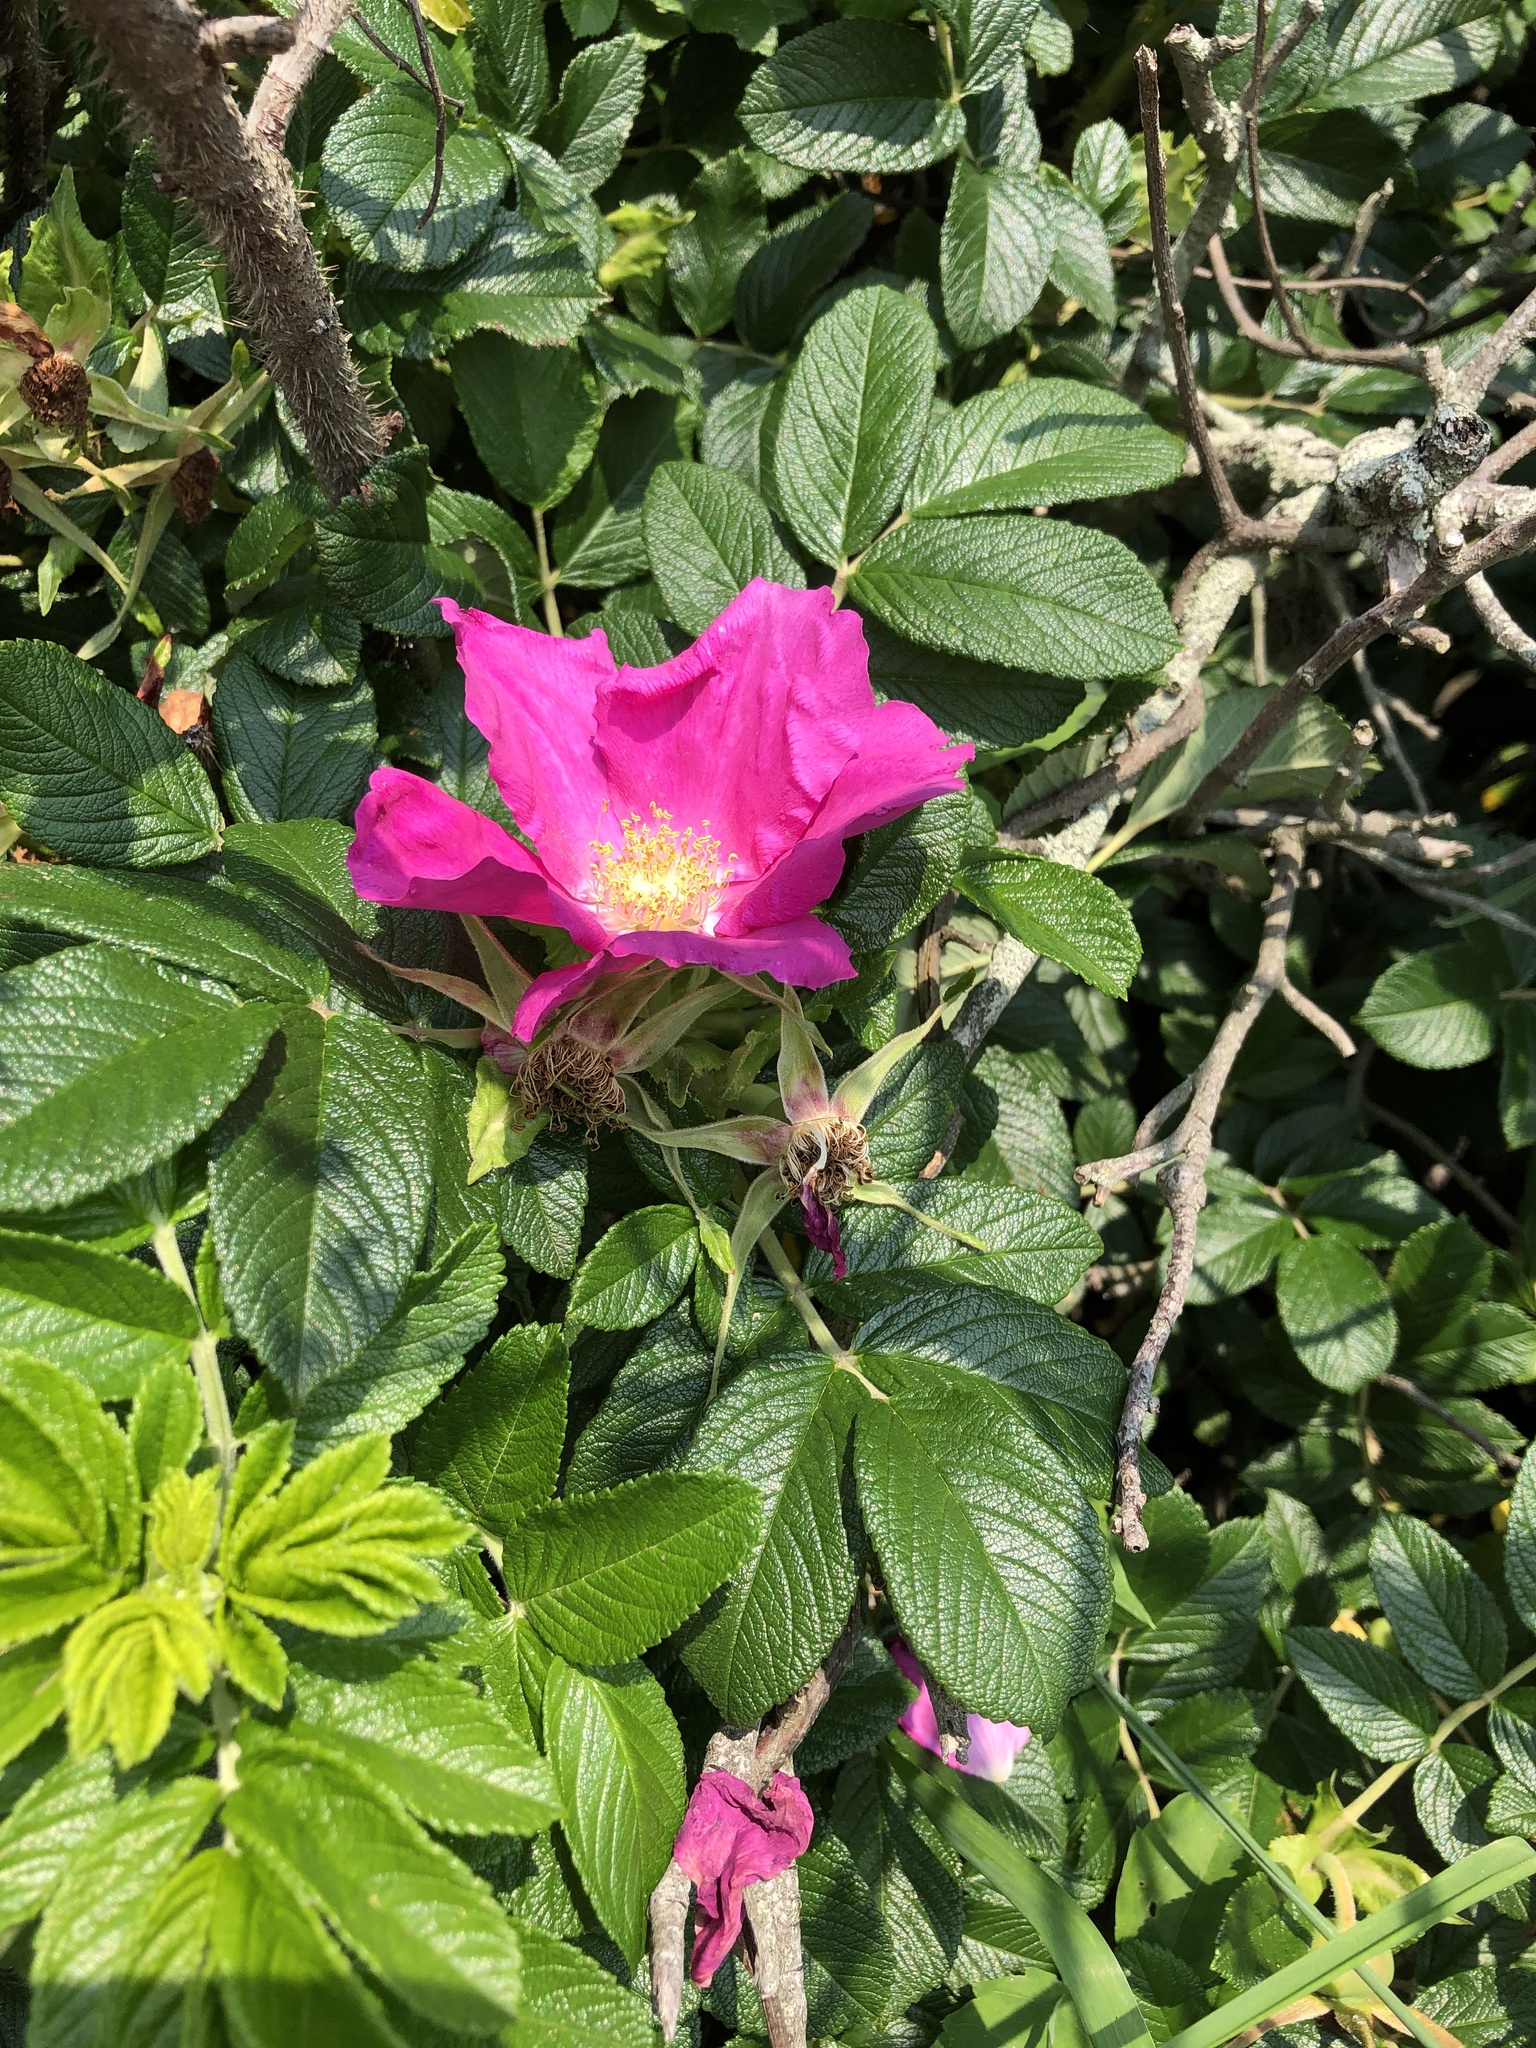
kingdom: Plantae
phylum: Tracheophyta
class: Magnoliopsida
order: Rosales
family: Rosaceae
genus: Rosa
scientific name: Rosa rugosa
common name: Japanese rose
